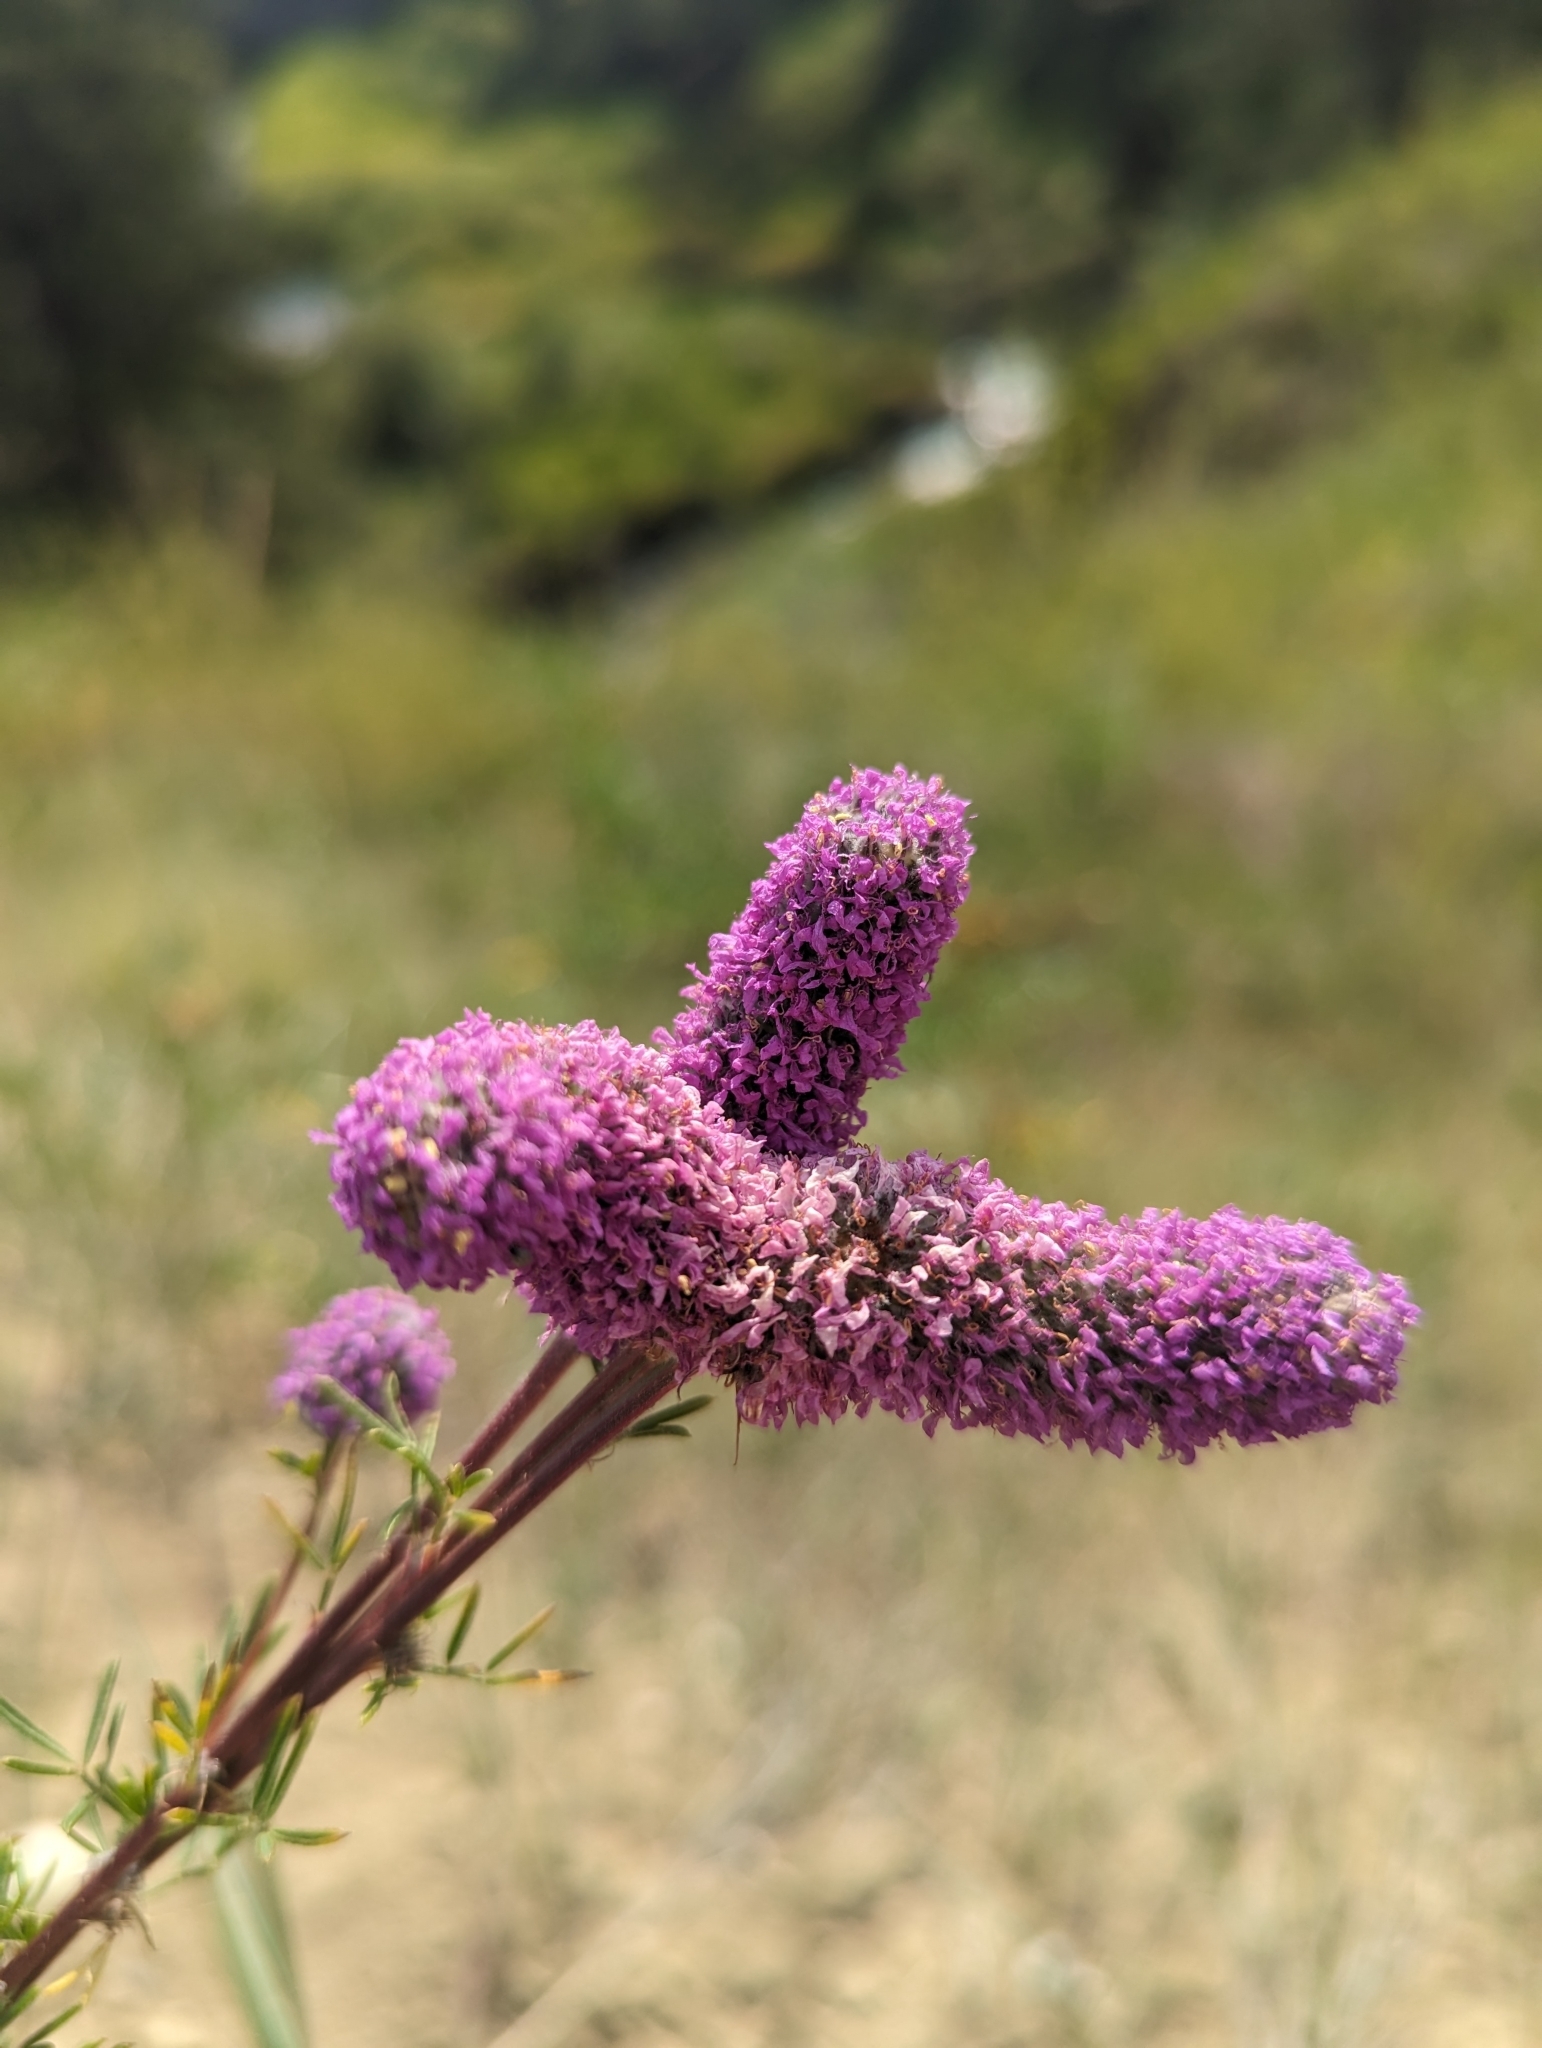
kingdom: Plantae
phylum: Tracheophyta
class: Magnoliopsida
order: Fabales
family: Fabaceae
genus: Dalea
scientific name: Dalea purpurea
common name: Purple prairie-clover
